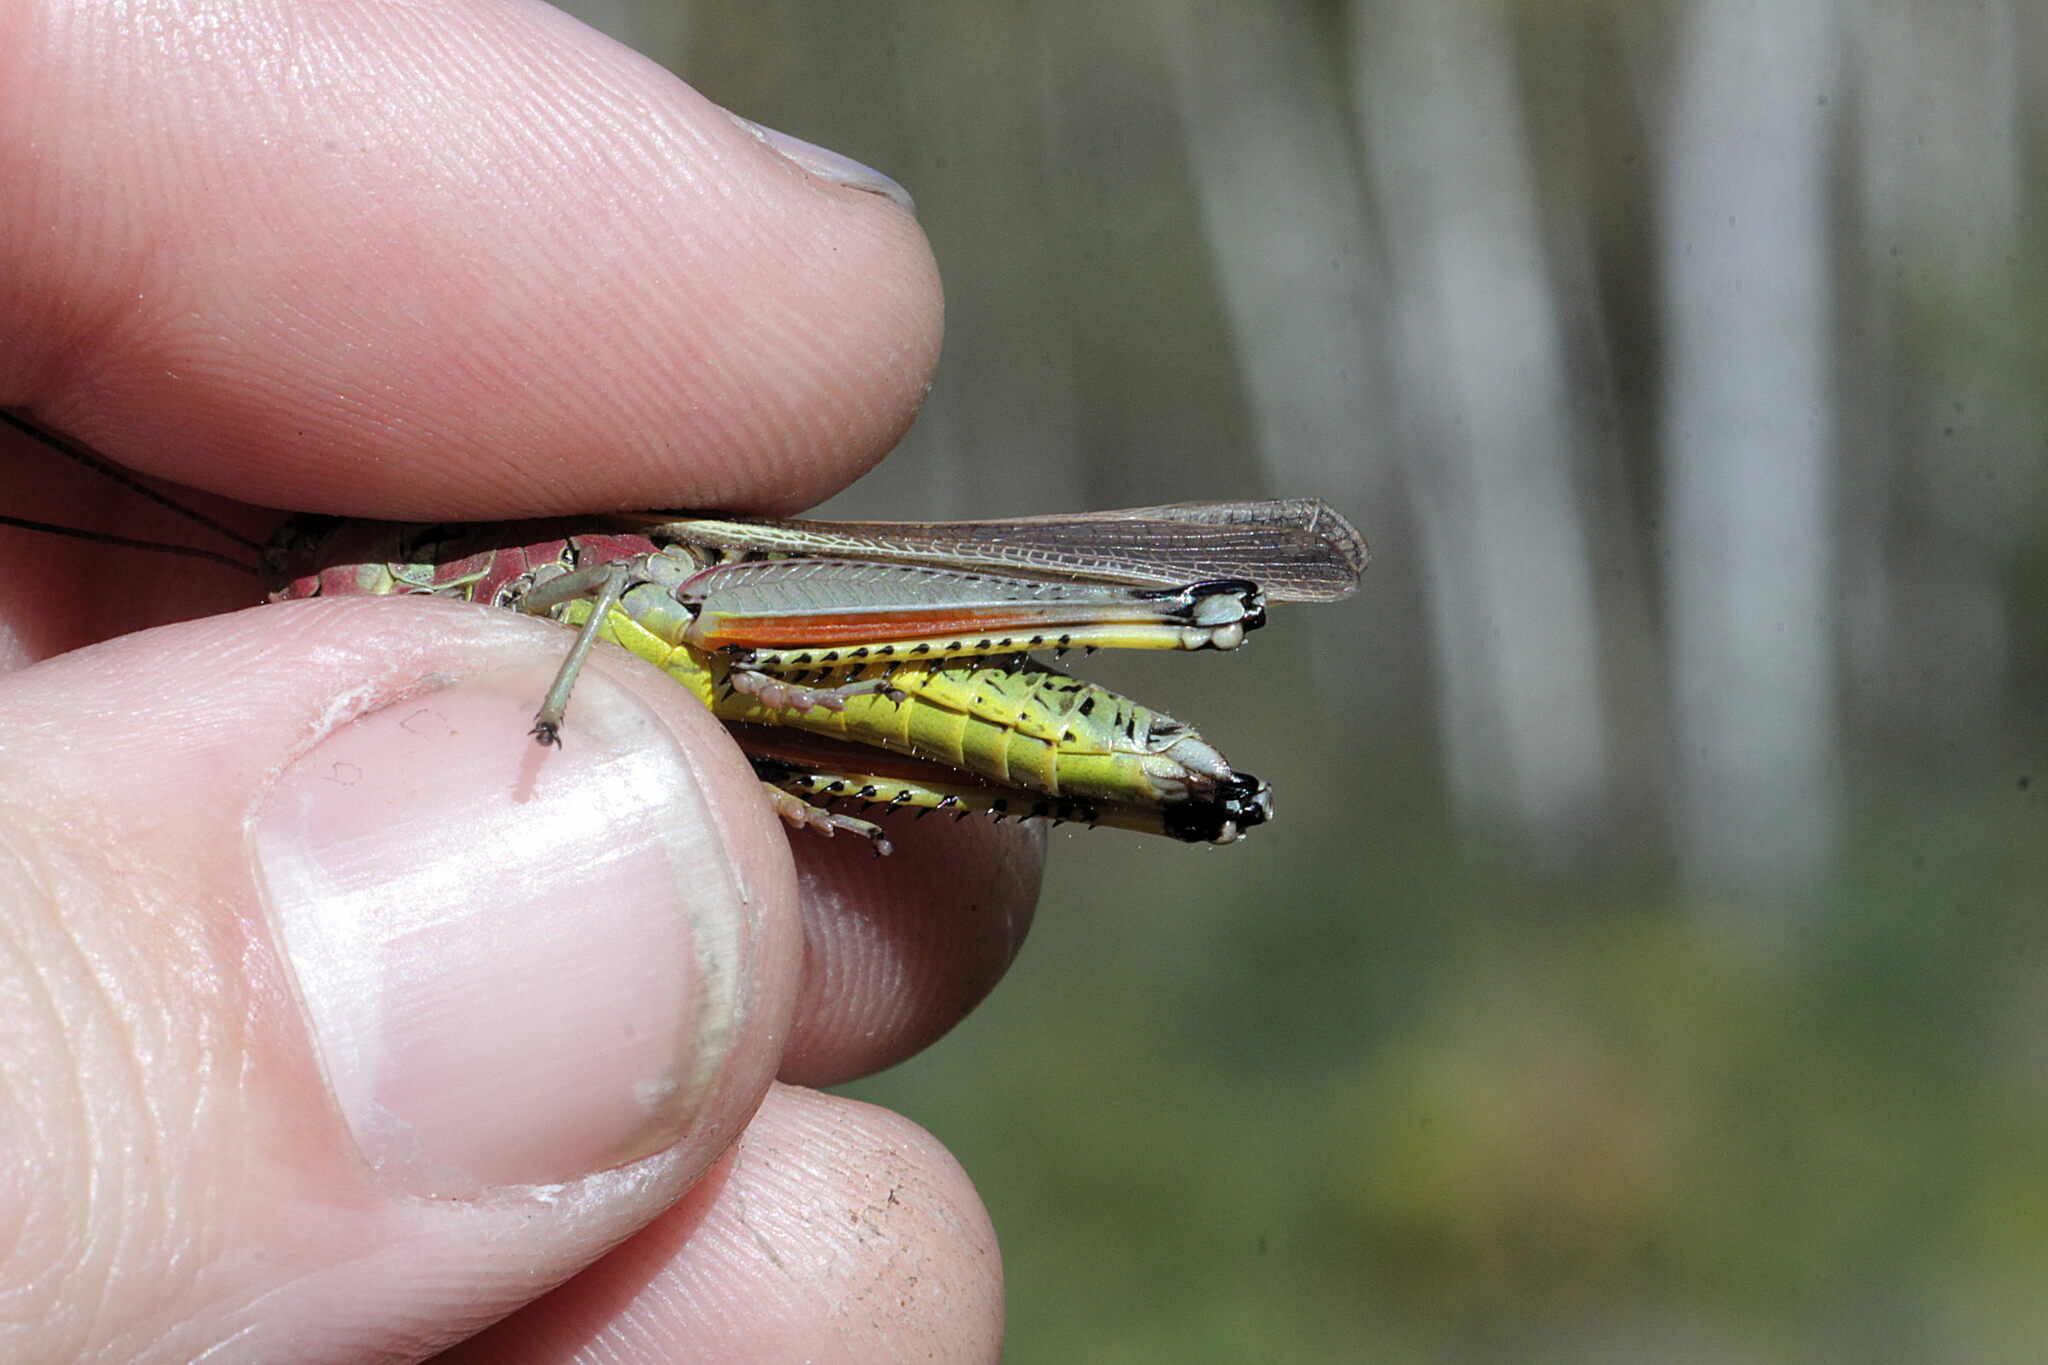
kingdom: Animalia
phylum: Arthropoda
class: Insecta
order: Orthoptera
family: Acrididae
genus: Stethophyma
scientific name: Stethophyma grossum
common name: Large marsh grasshopper
